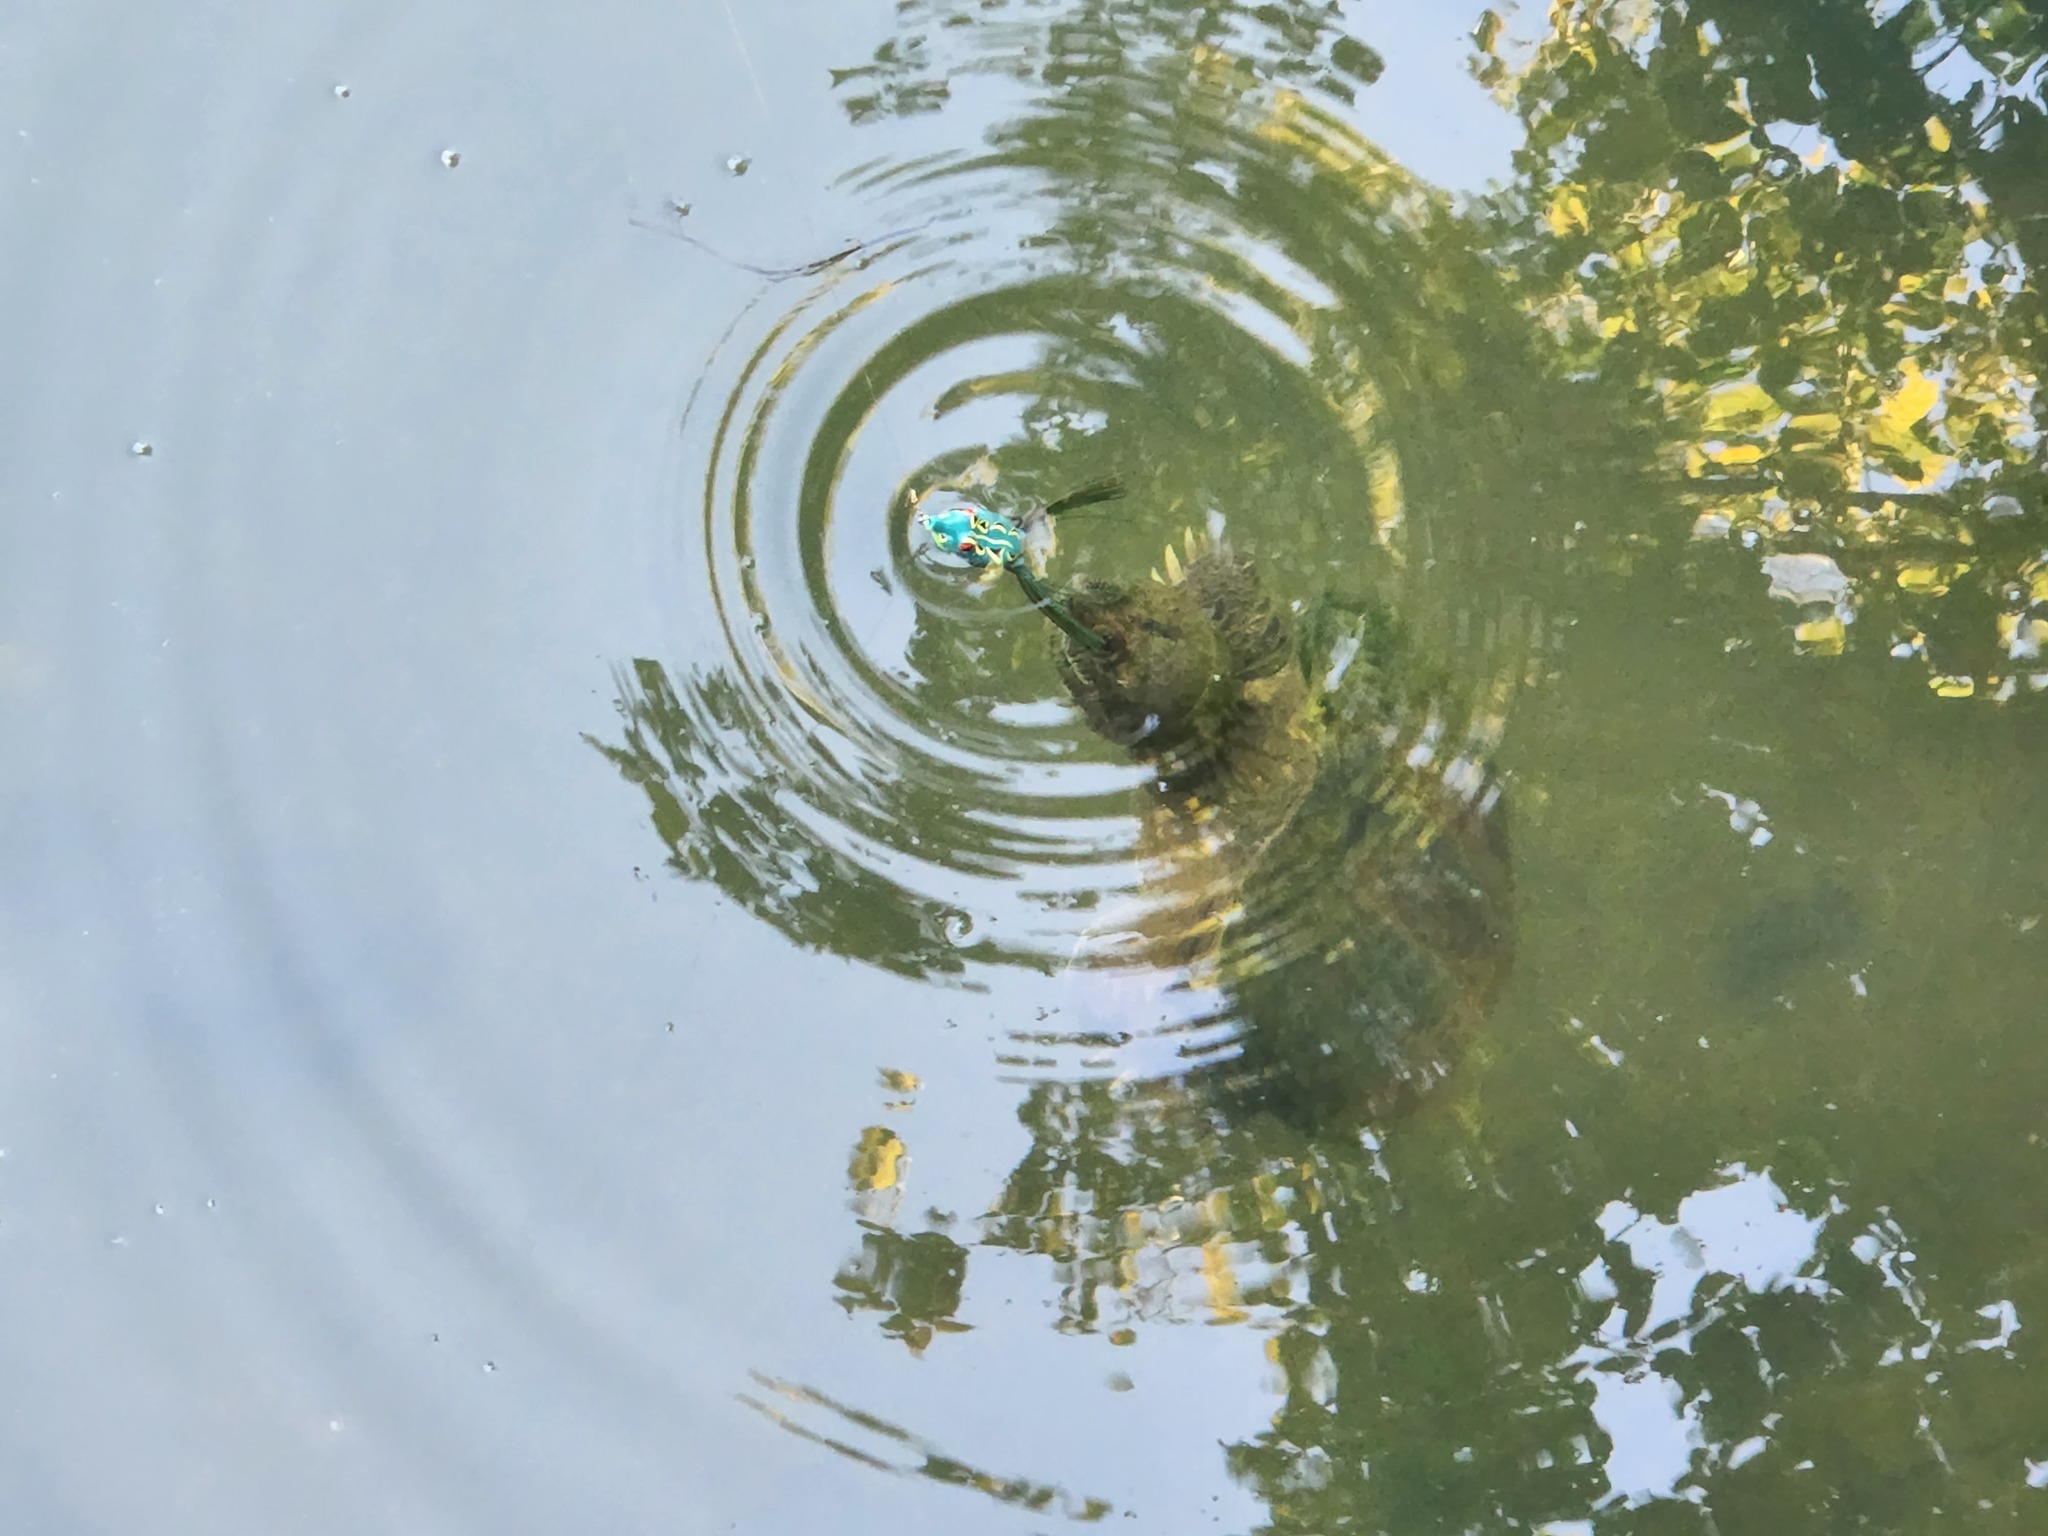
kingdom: Animalia
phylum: Chordata
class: Testudines
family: Chelydridae
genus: Chelydra
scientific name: Chelydra serpentina
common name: Common snapping turtle
